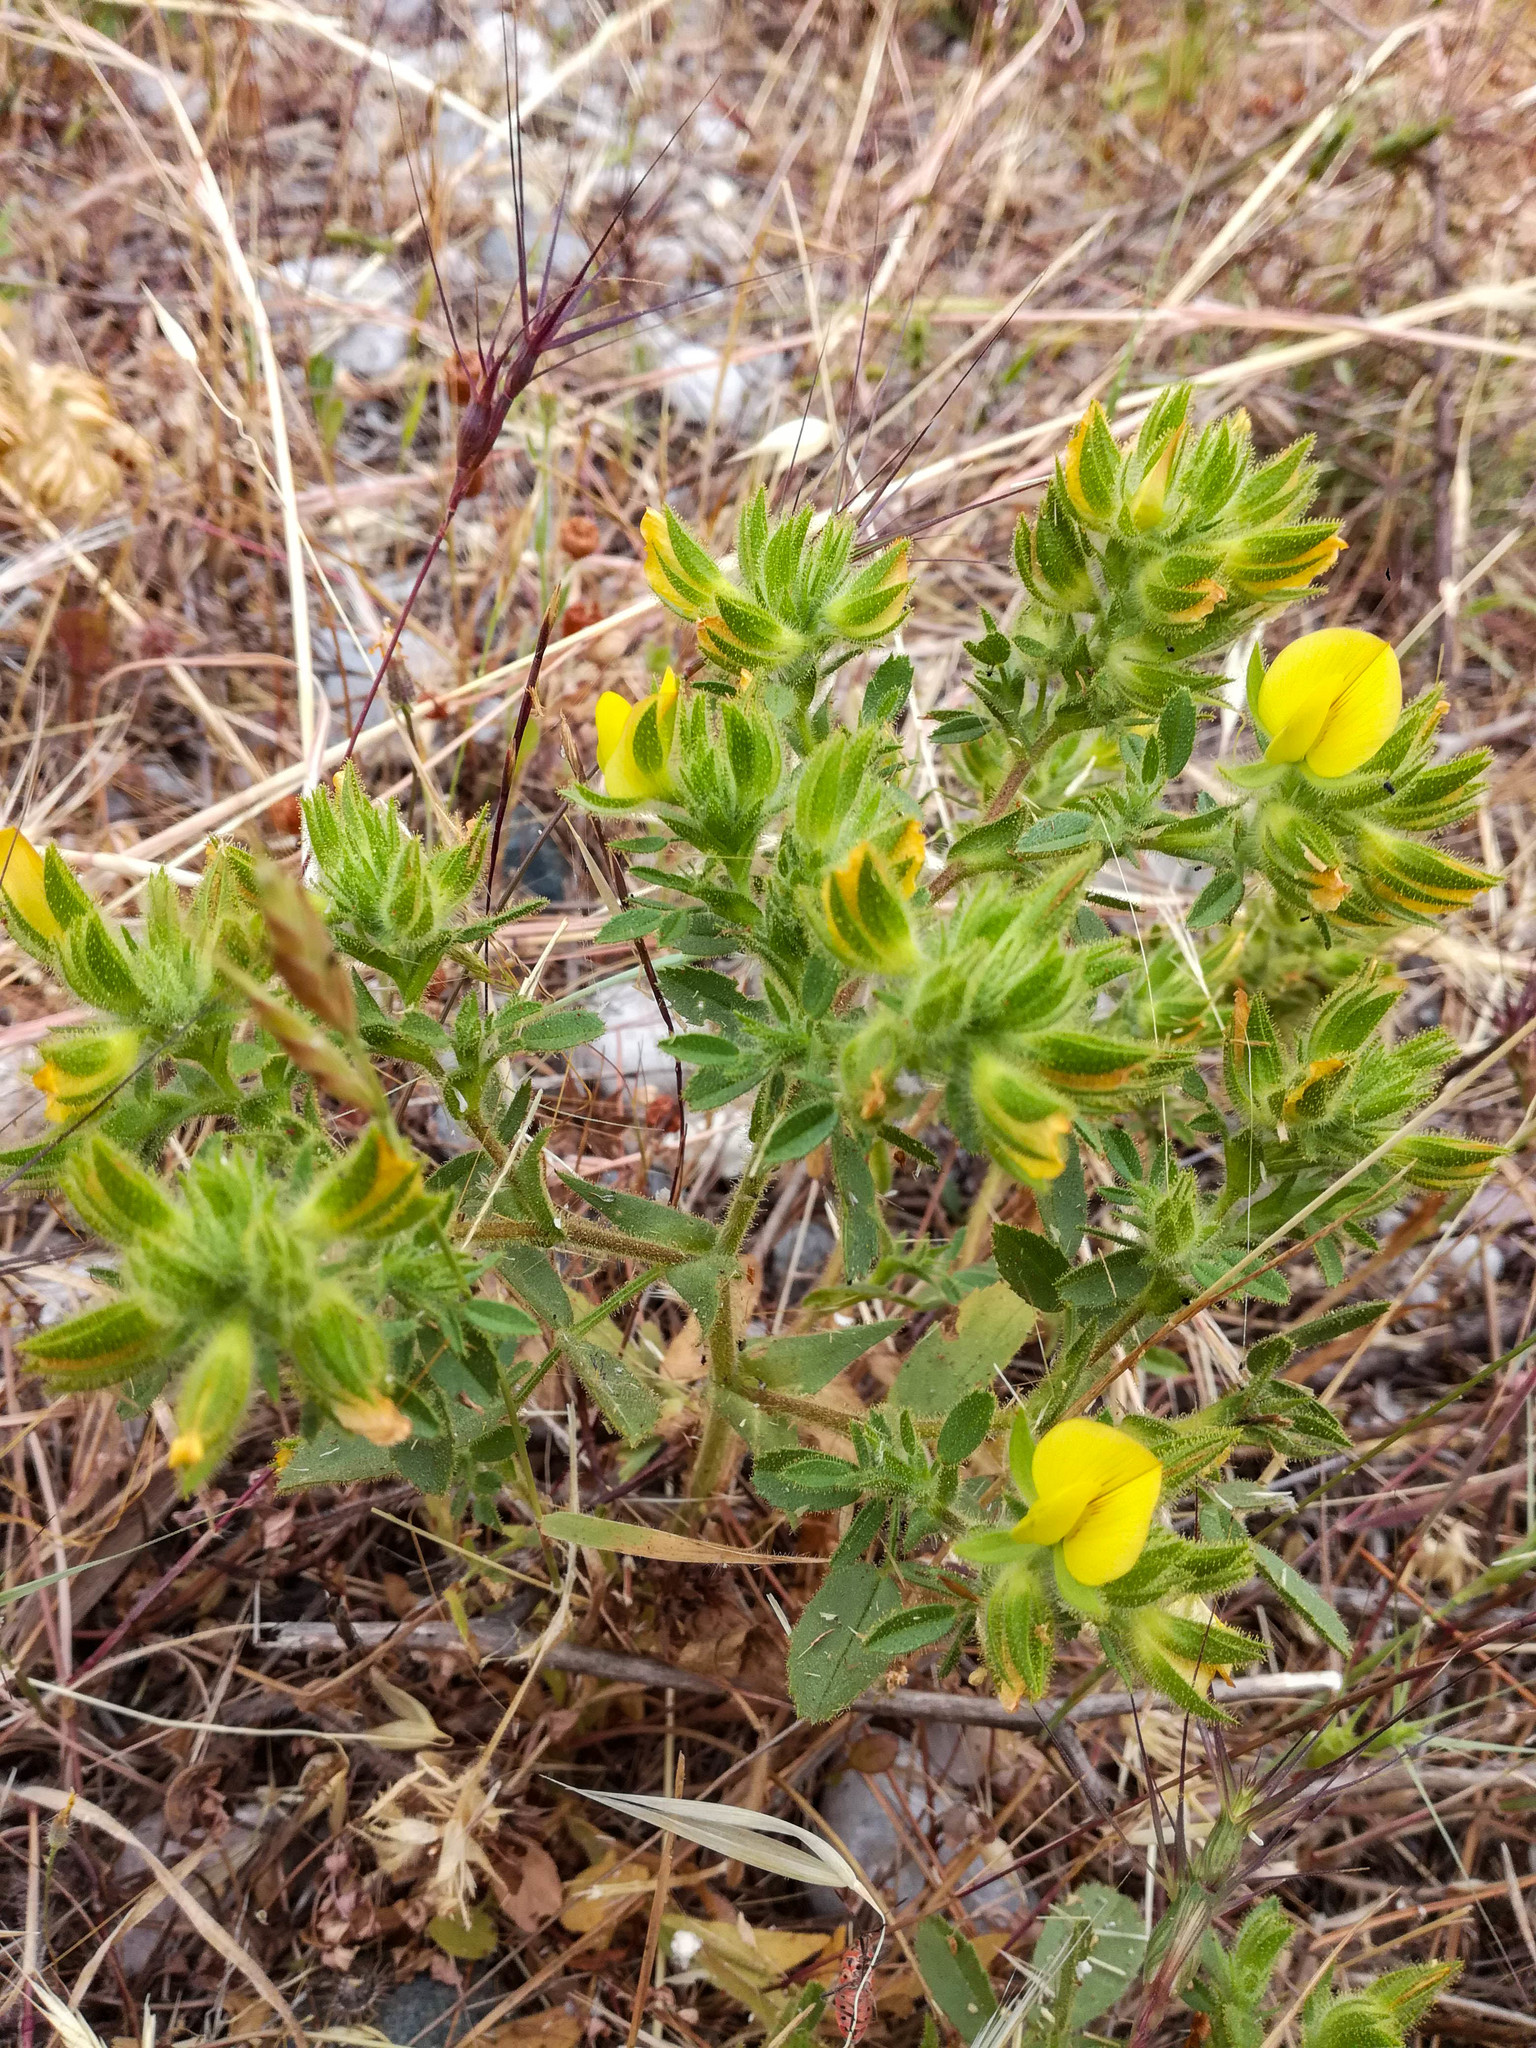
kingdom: Plantae
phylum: Tracheophyta
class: Magnoliopsida
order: Fabales
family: Fabaceae
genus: Ononis
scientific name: Ononis pubescens
